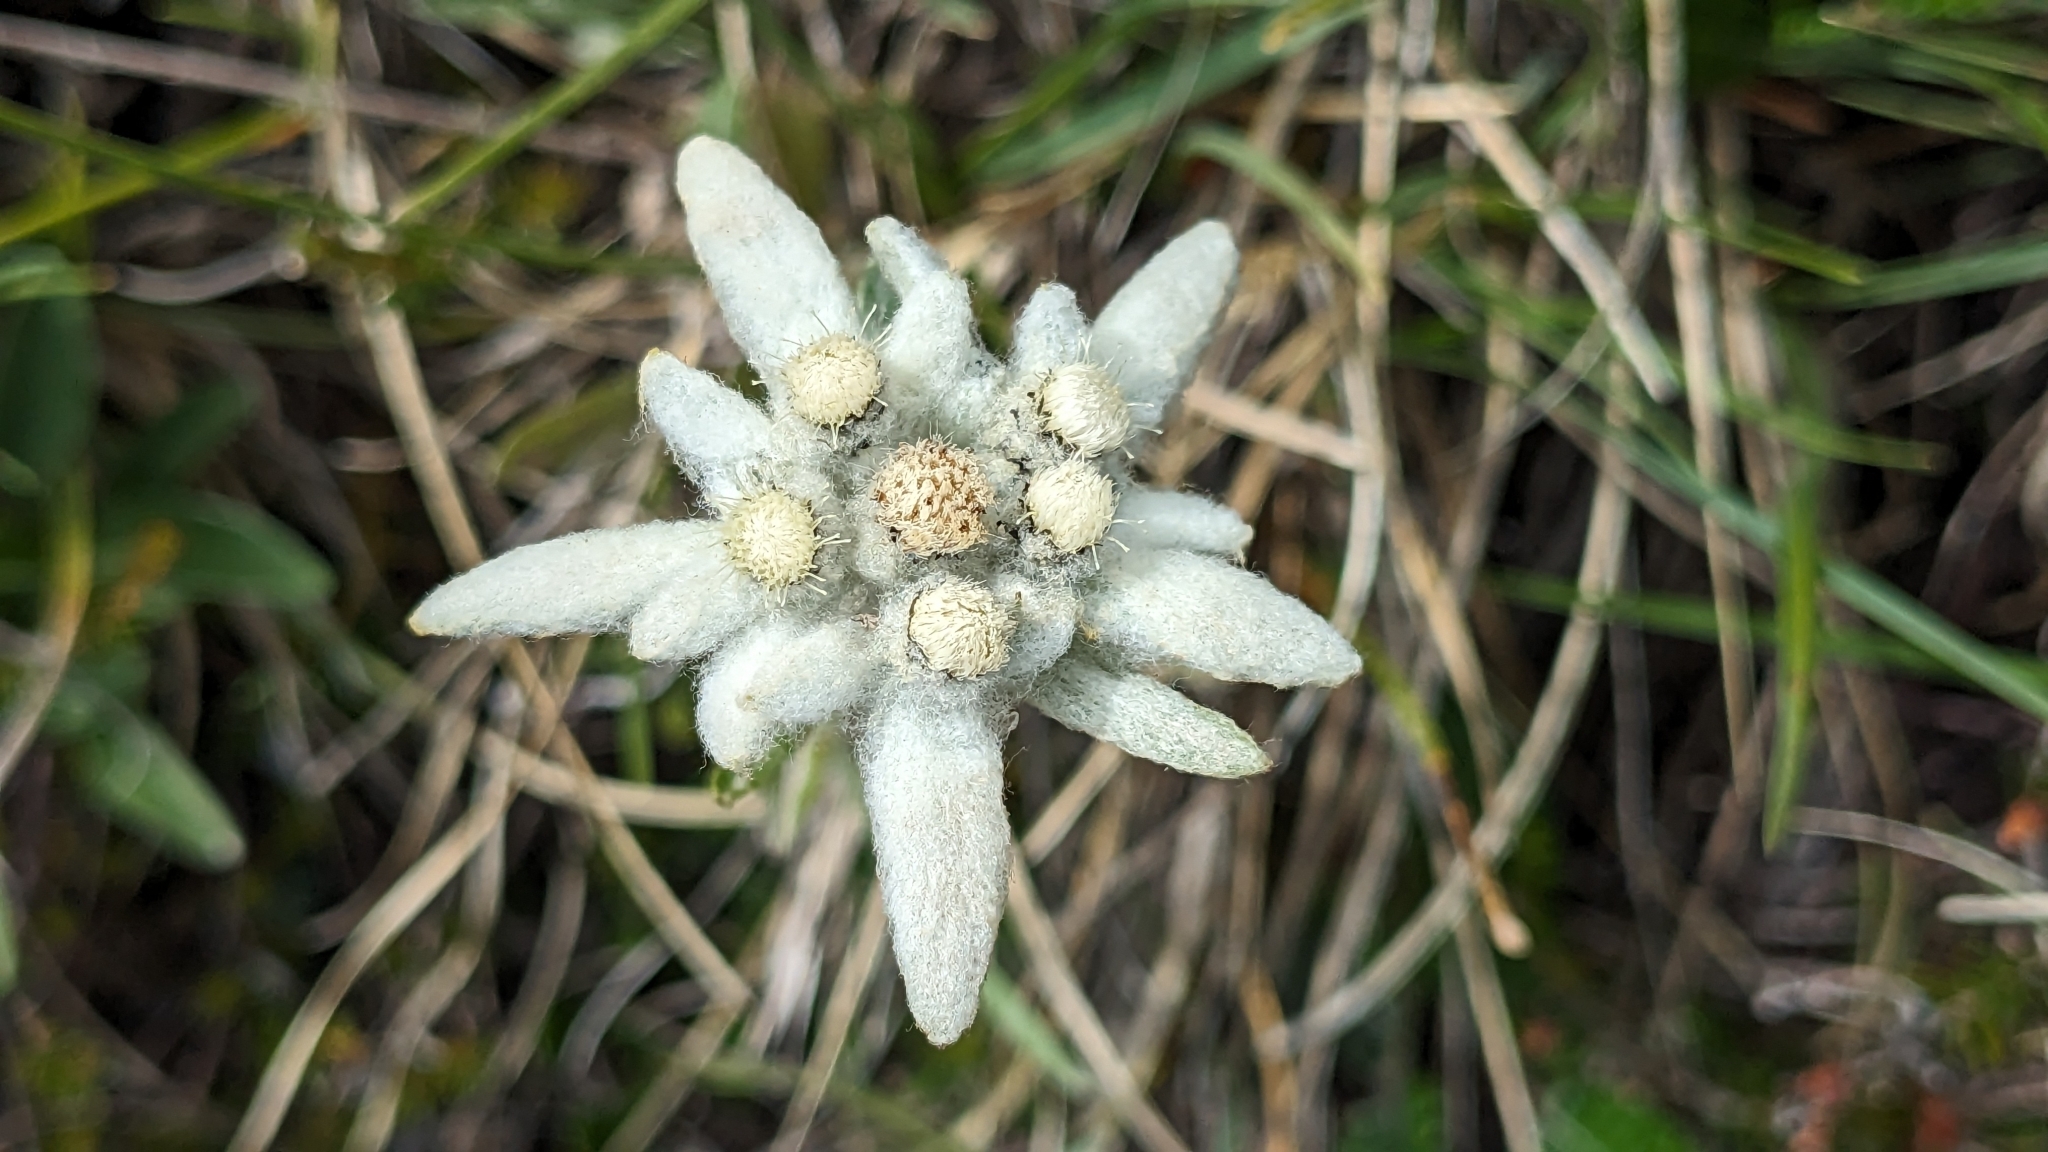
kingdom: Plantae
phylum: Tracheophyta
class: Magnoliopsida
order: Asterales
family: Asteraceae
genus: Leontopodium
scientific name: Leontopodium nivale
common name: Edelweiss
